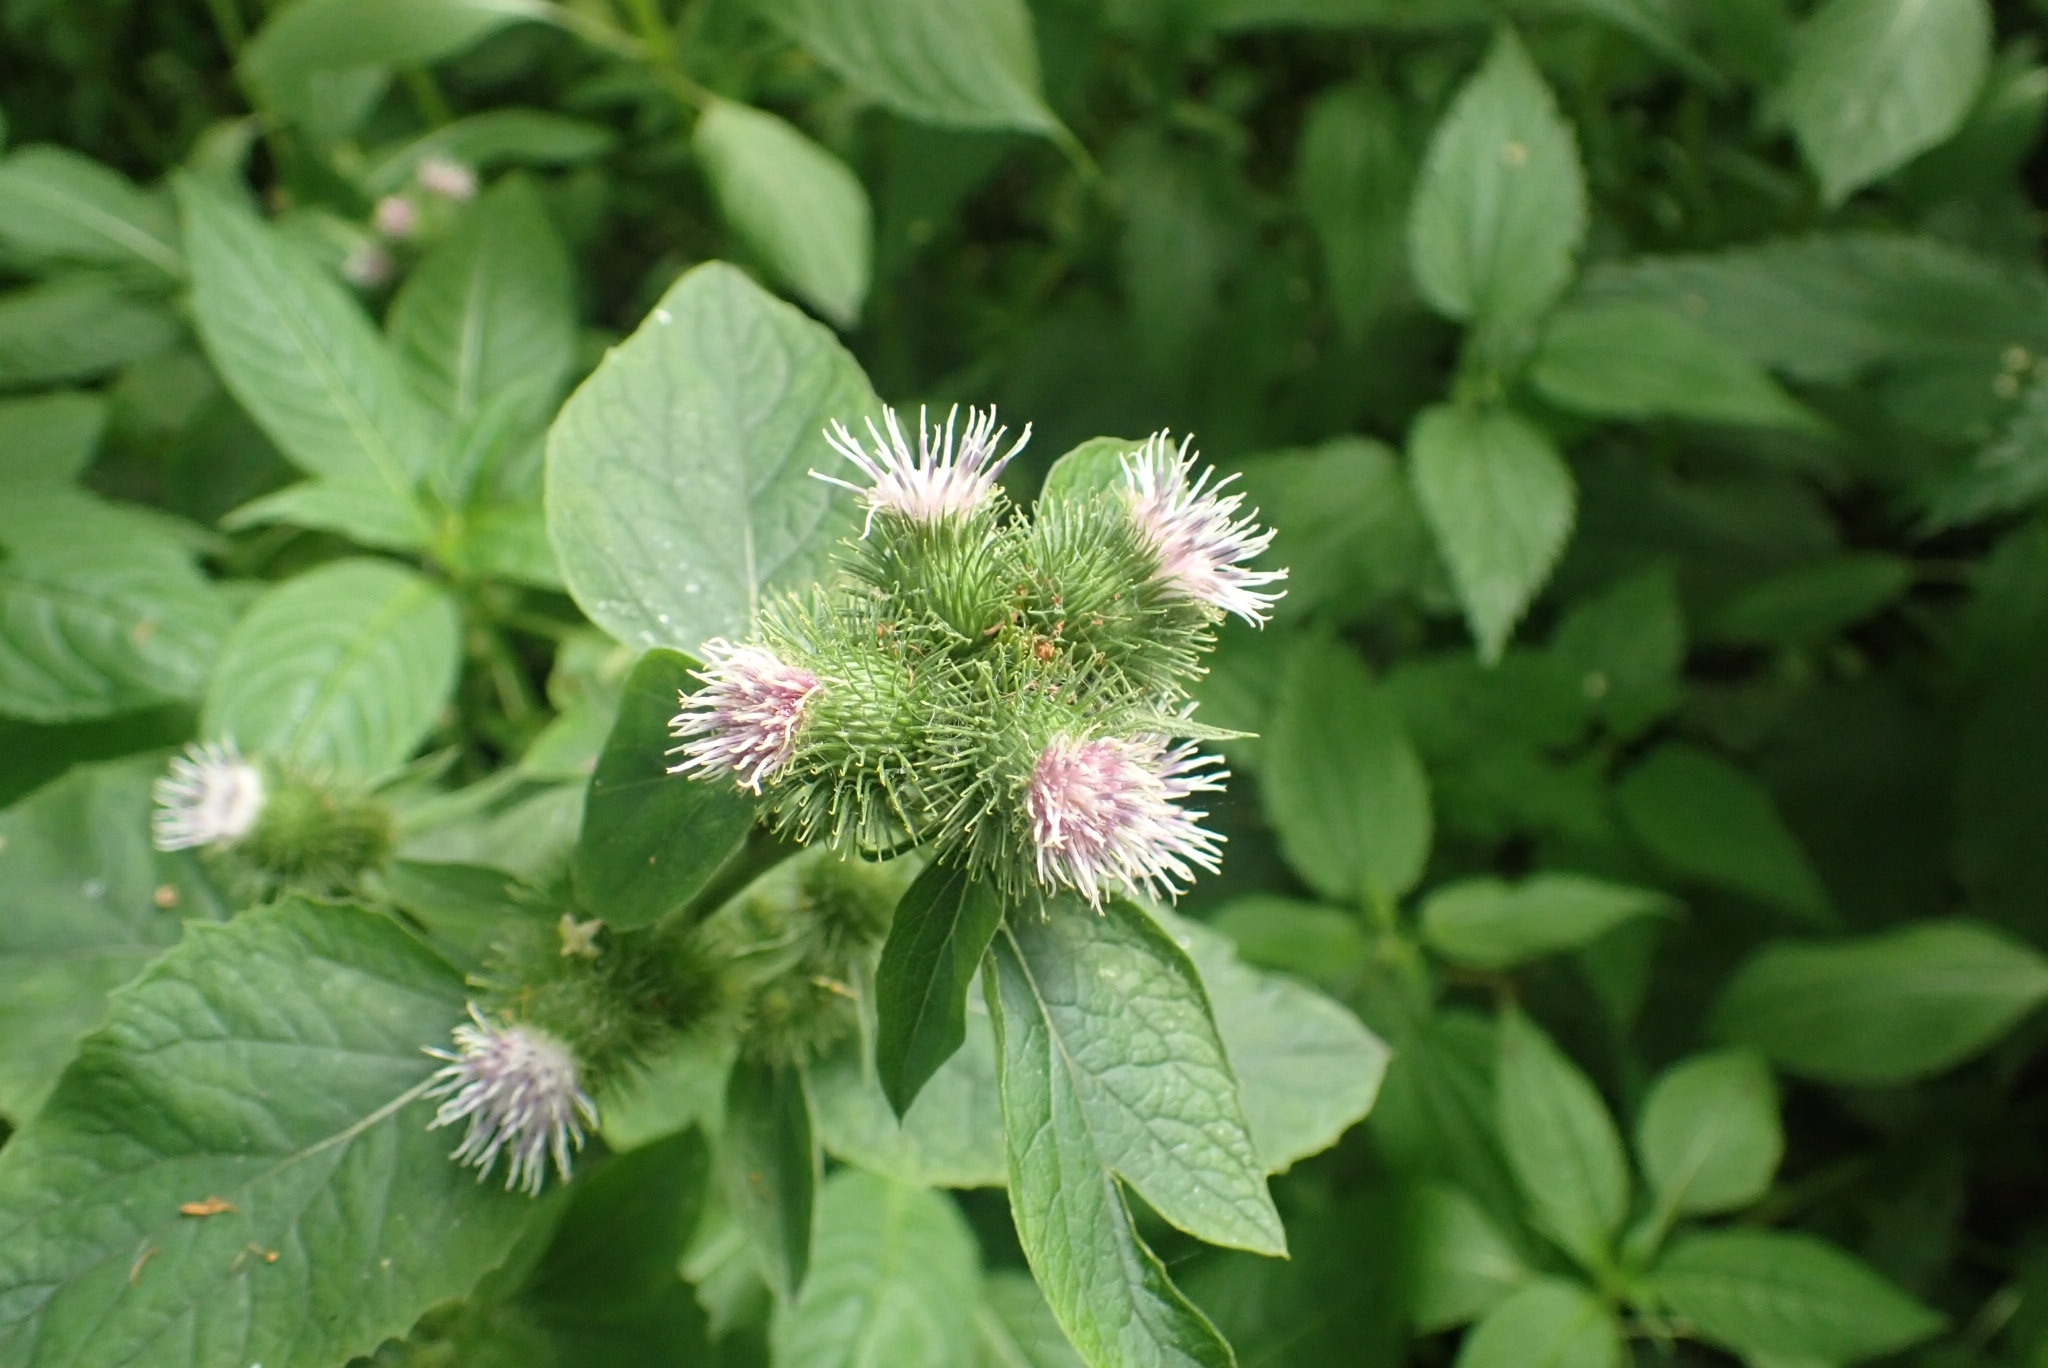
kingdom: Plantae
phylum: Tracheophyta
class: Magnoliopsida
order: Asterales
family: Asteraceae
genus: Arctium
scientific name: Arctium minus
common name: Lesser burdock
